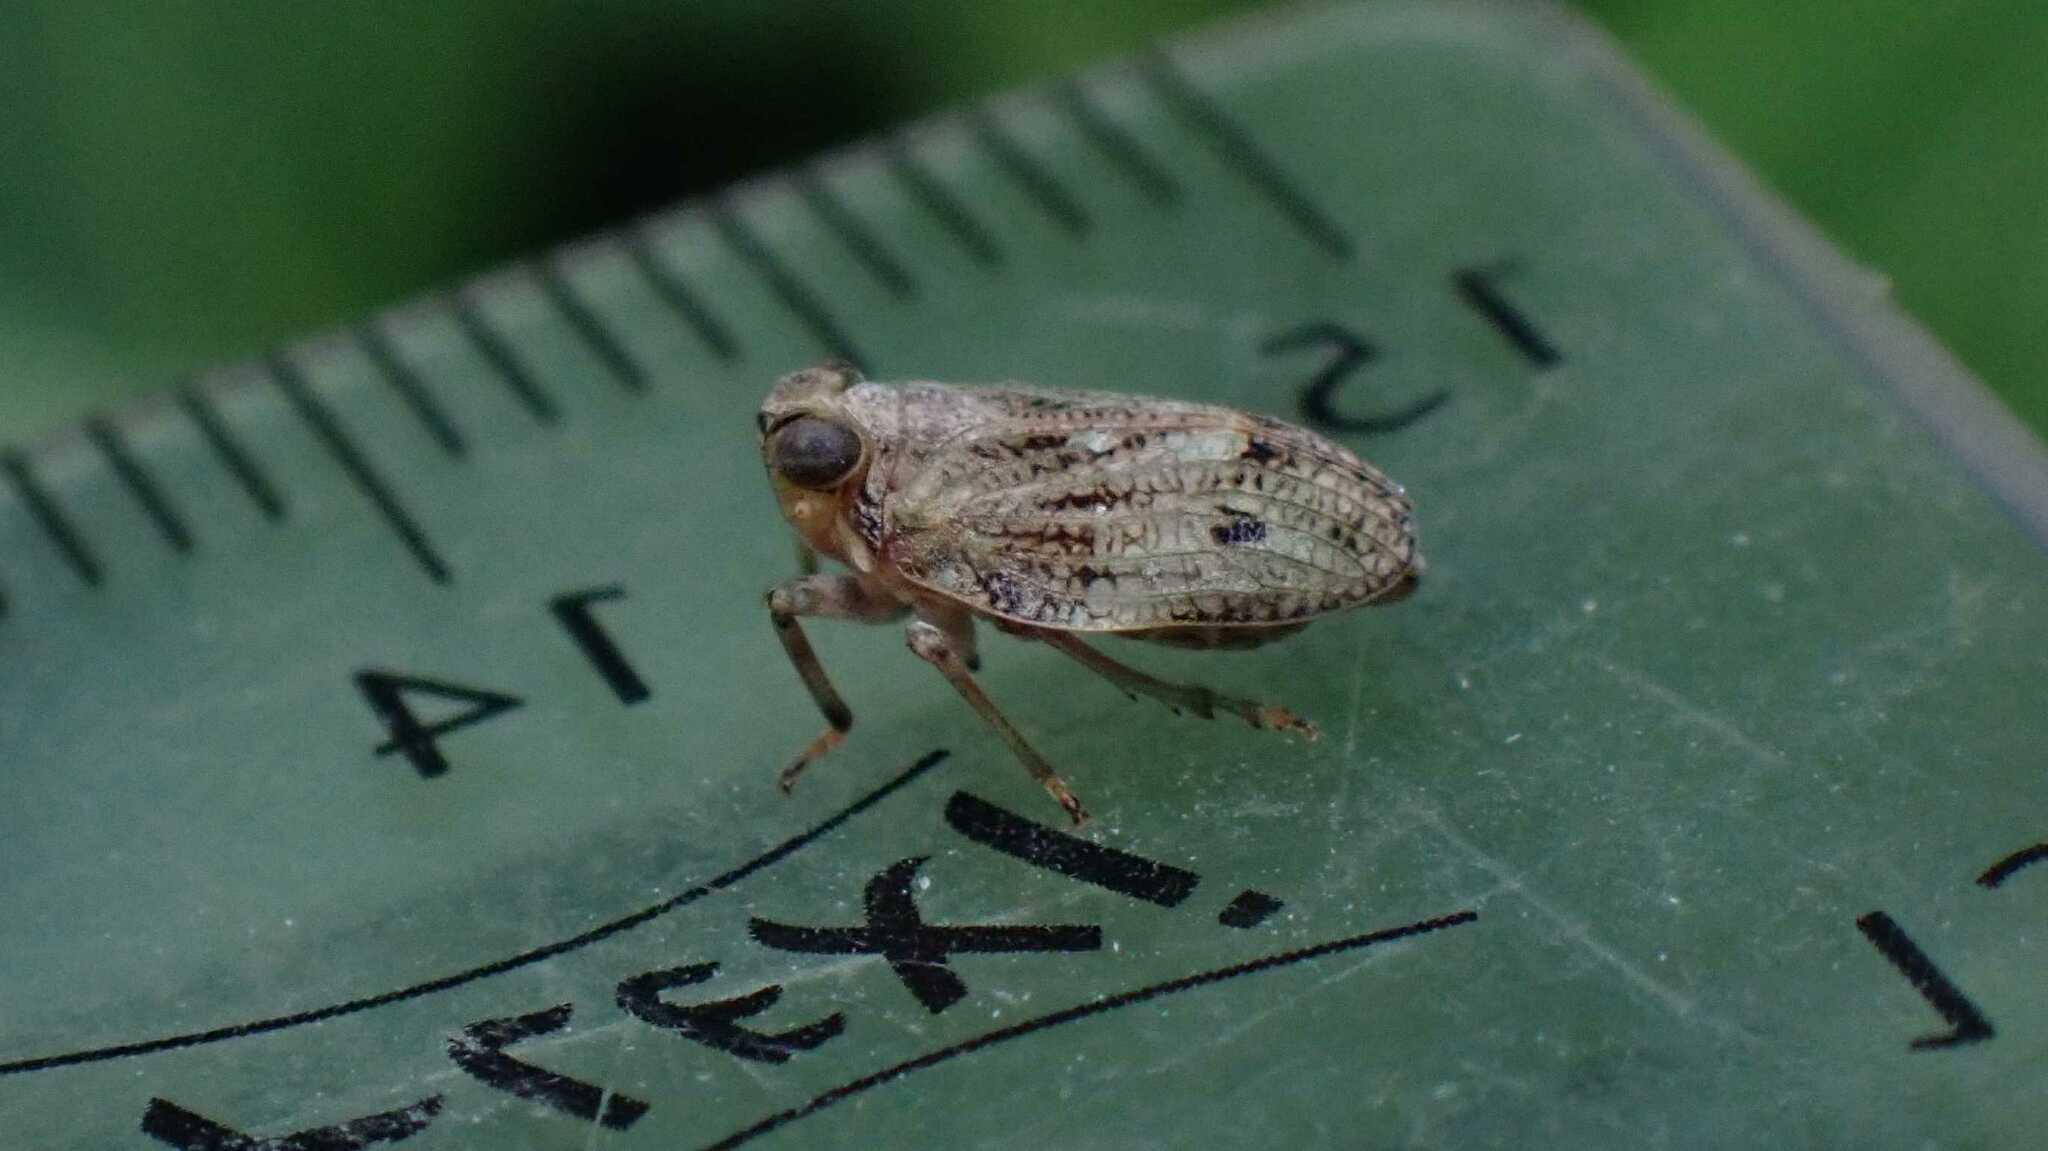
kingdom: Animalia
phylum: Arthropoda
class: Insecta
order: Hemiptera
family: Issidae
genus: Issus
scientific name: Issus coleoptratus
